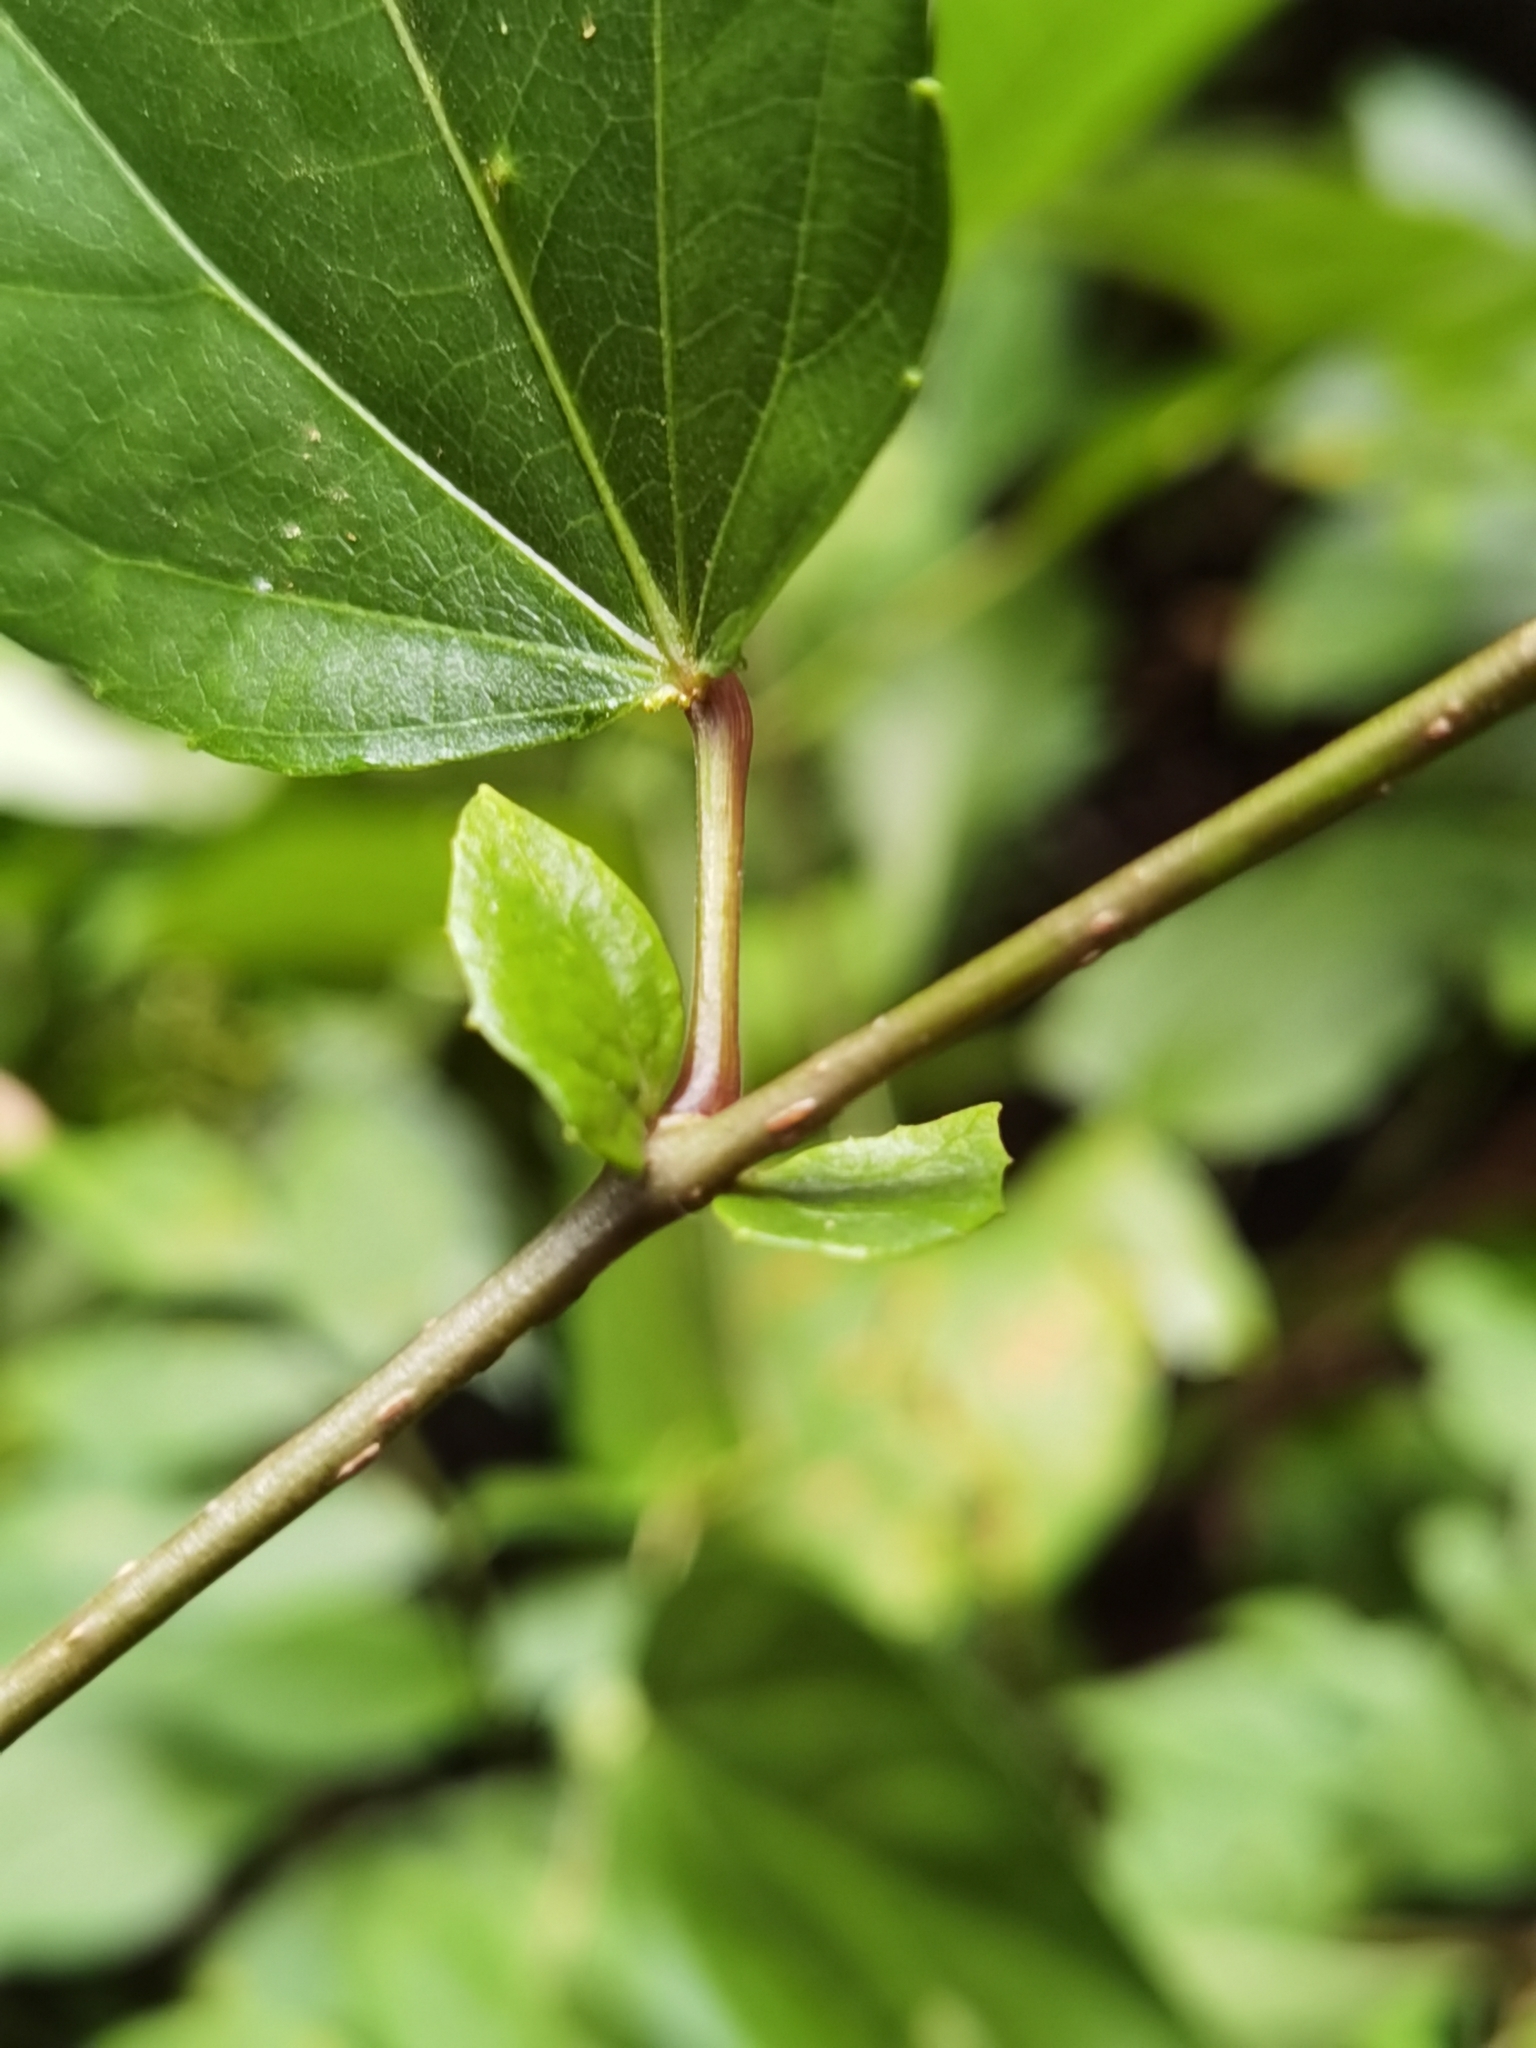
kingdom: Plantae
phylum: Tracheophyta
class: Magnoliopsida
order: Malpighiales
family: Salicaceae
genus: Prockia
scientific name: Prockia crucis
